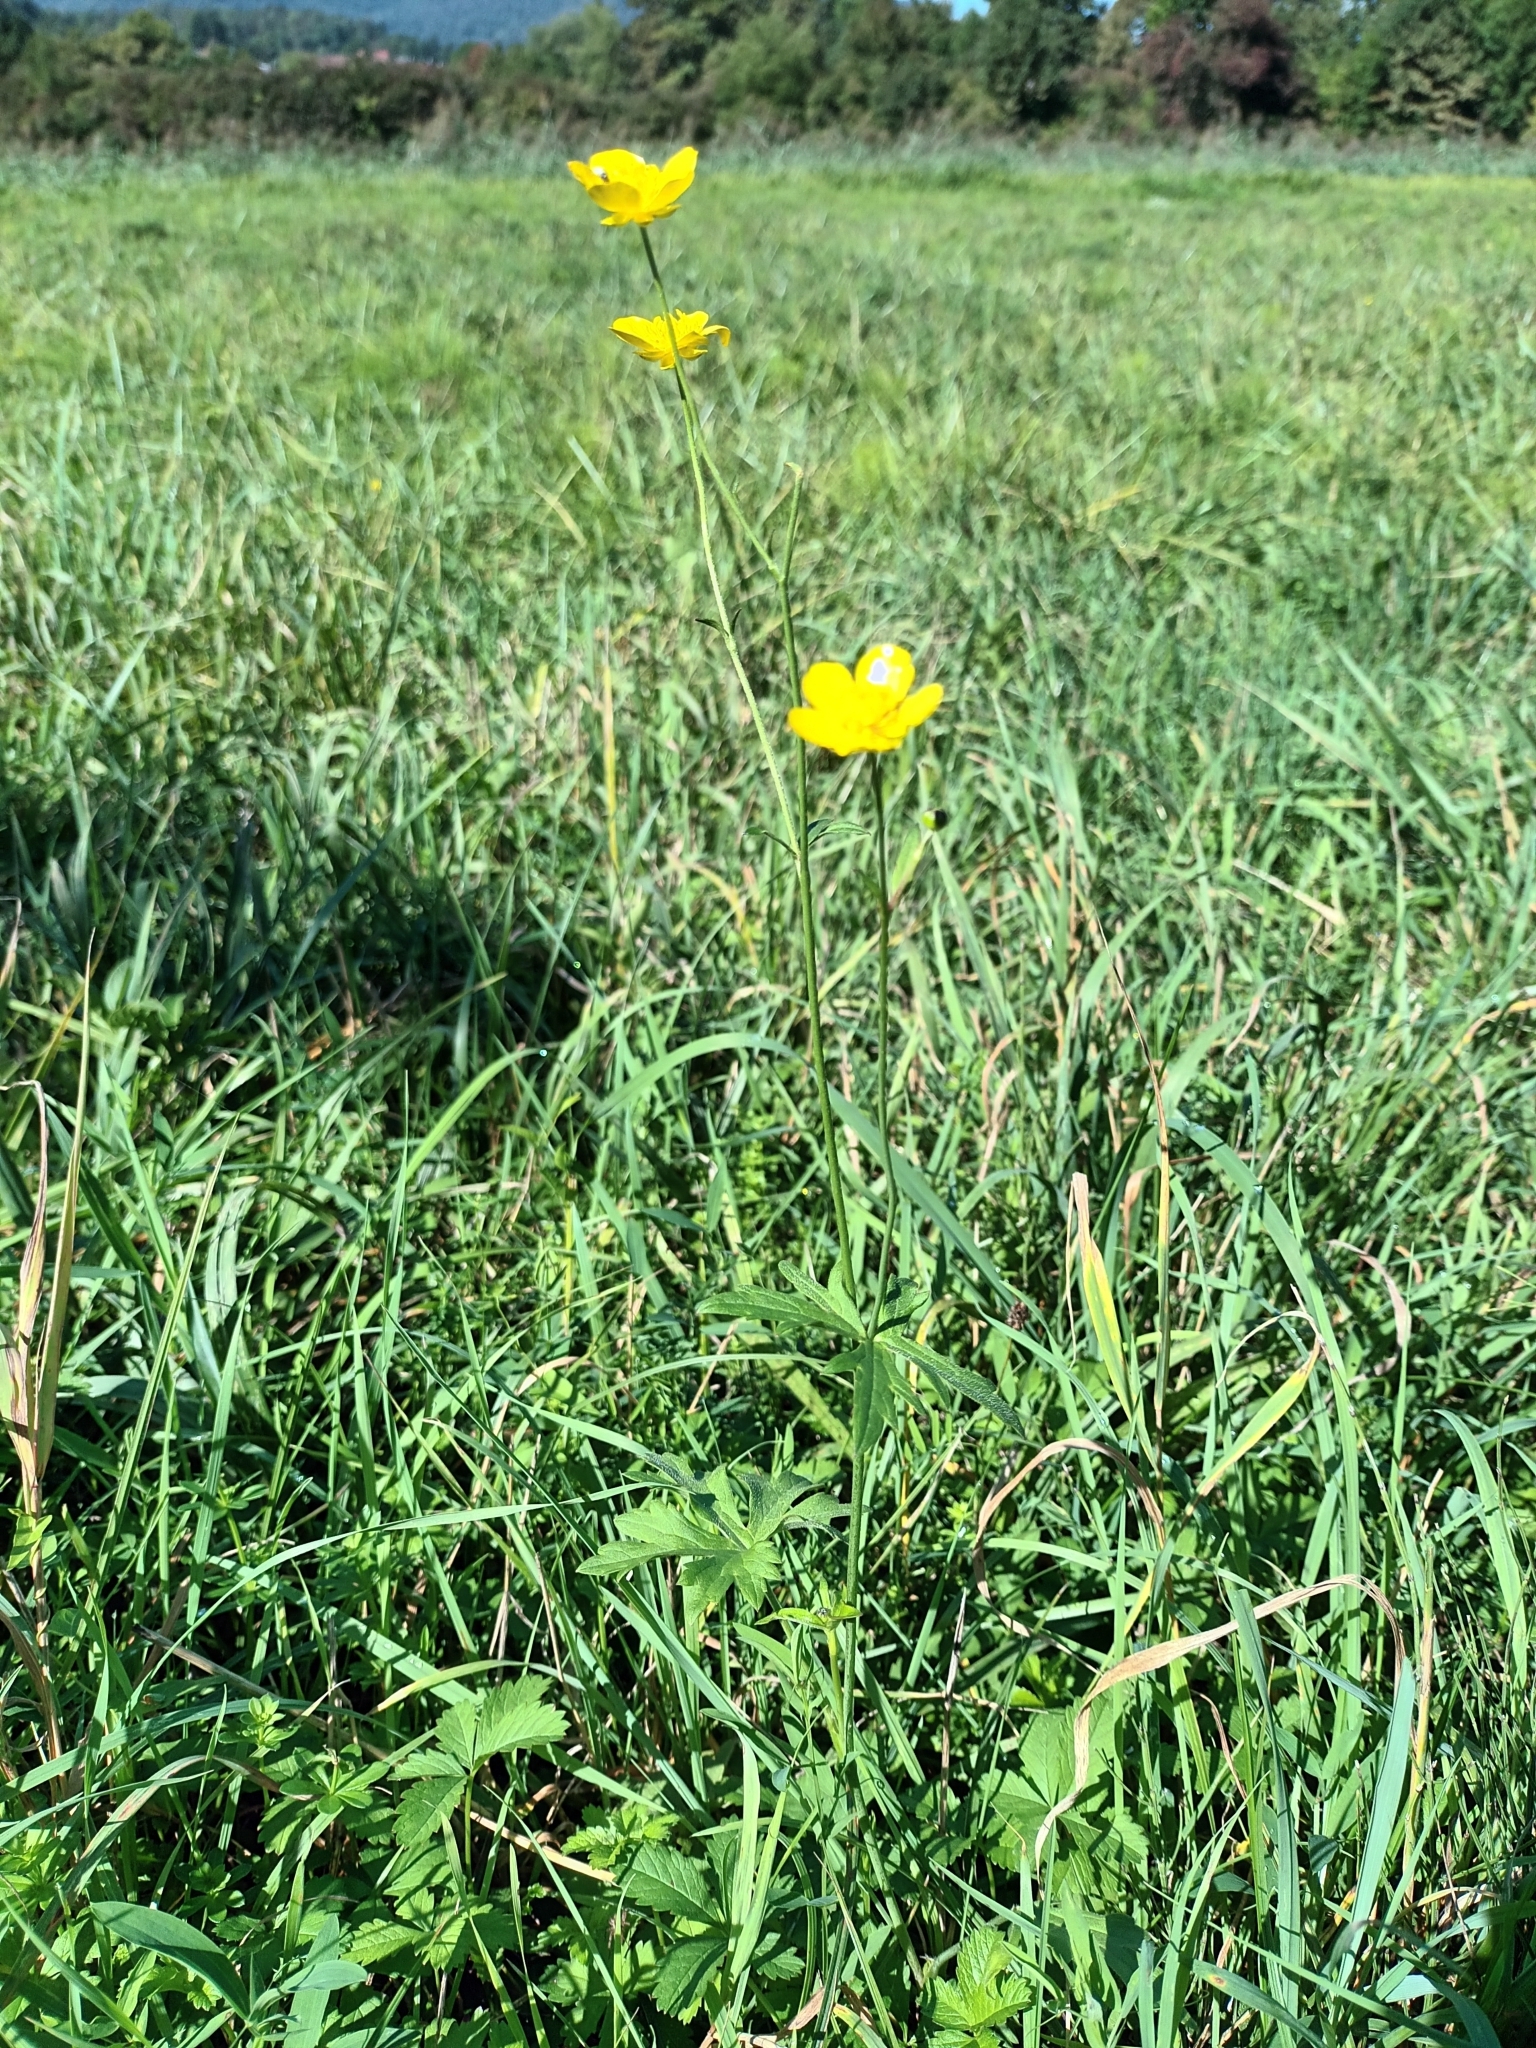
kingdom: Plantae
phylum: Tracheophyta
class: Magnoliopsida
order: Ranunculales
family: Ranunculaceae
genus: Ranunculus
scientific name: Ranunculus acris
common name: Meadow buttercup
